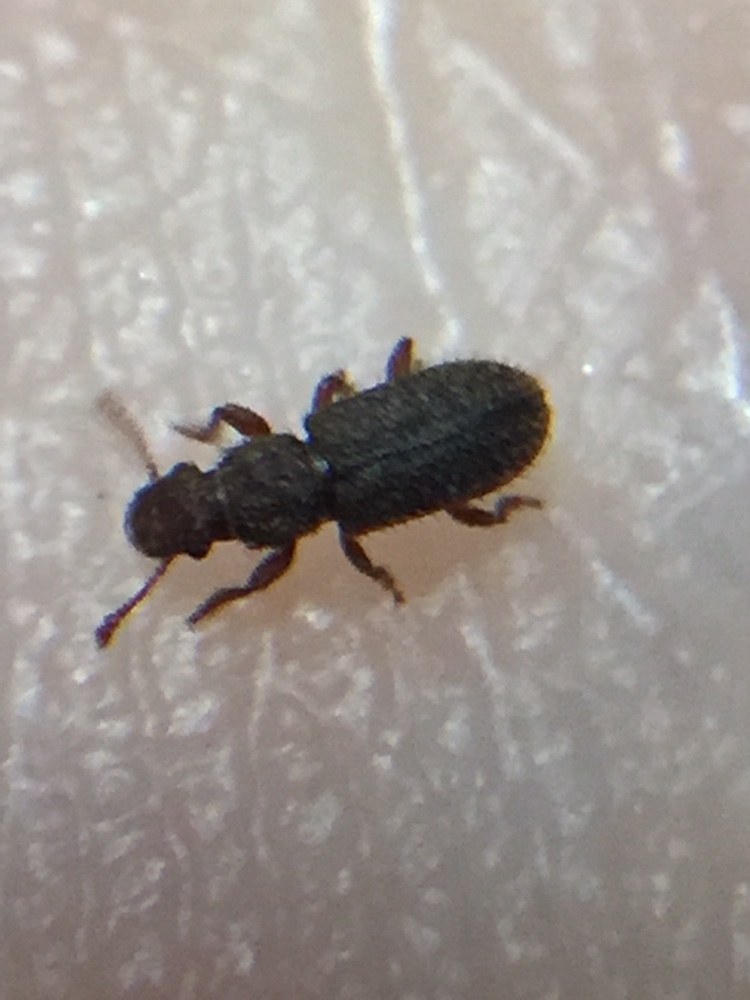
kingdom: Animalia
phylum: Arthropoda
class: Insecta
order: Coleoptera
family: Belidae
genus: Aralius
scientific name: Aralius wollastoni
